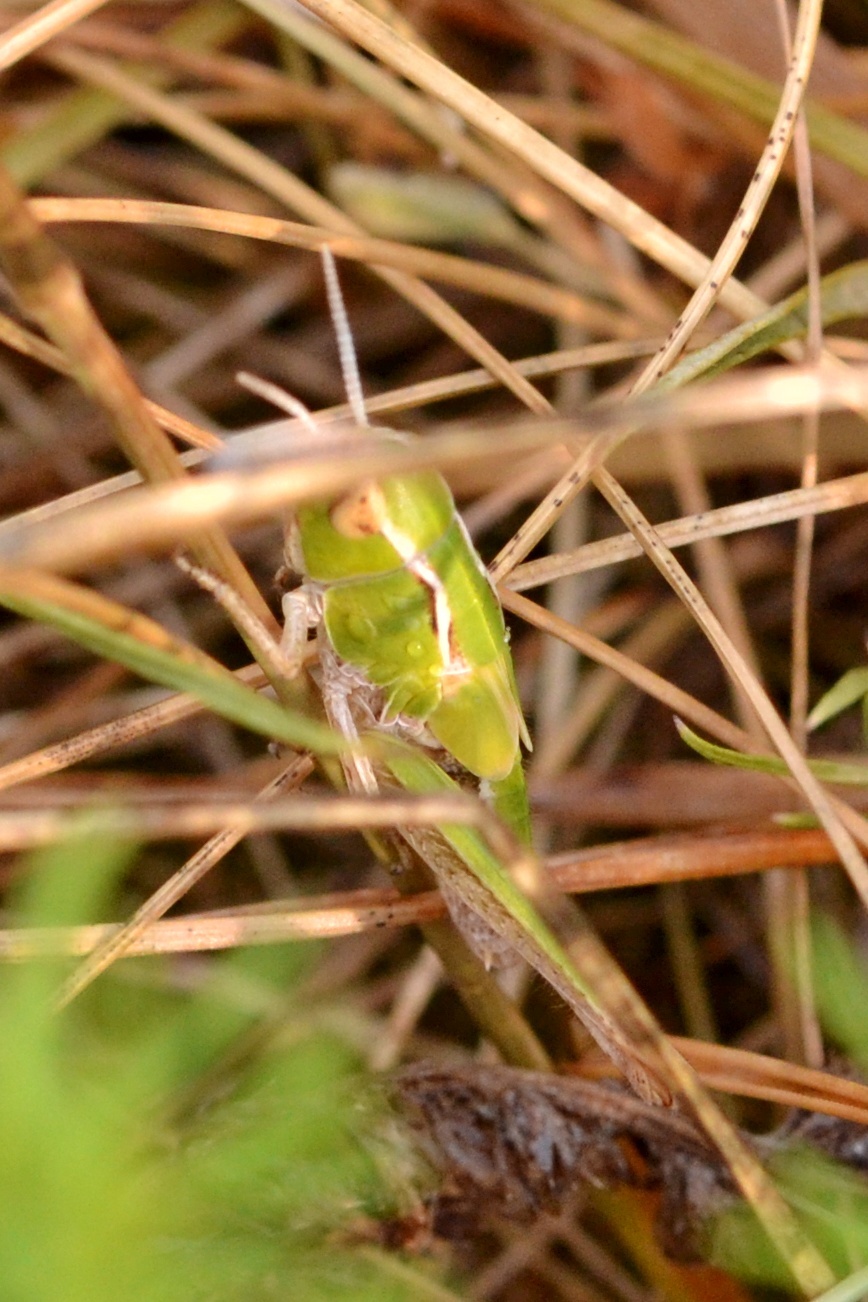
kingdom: Animalia
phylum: Arthropoda
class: Insecta
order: Orthoptera
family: Acrididae
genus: Stenobothrus
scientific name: Stenobothrus lineatus
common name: Stripe-winged grasshopper
